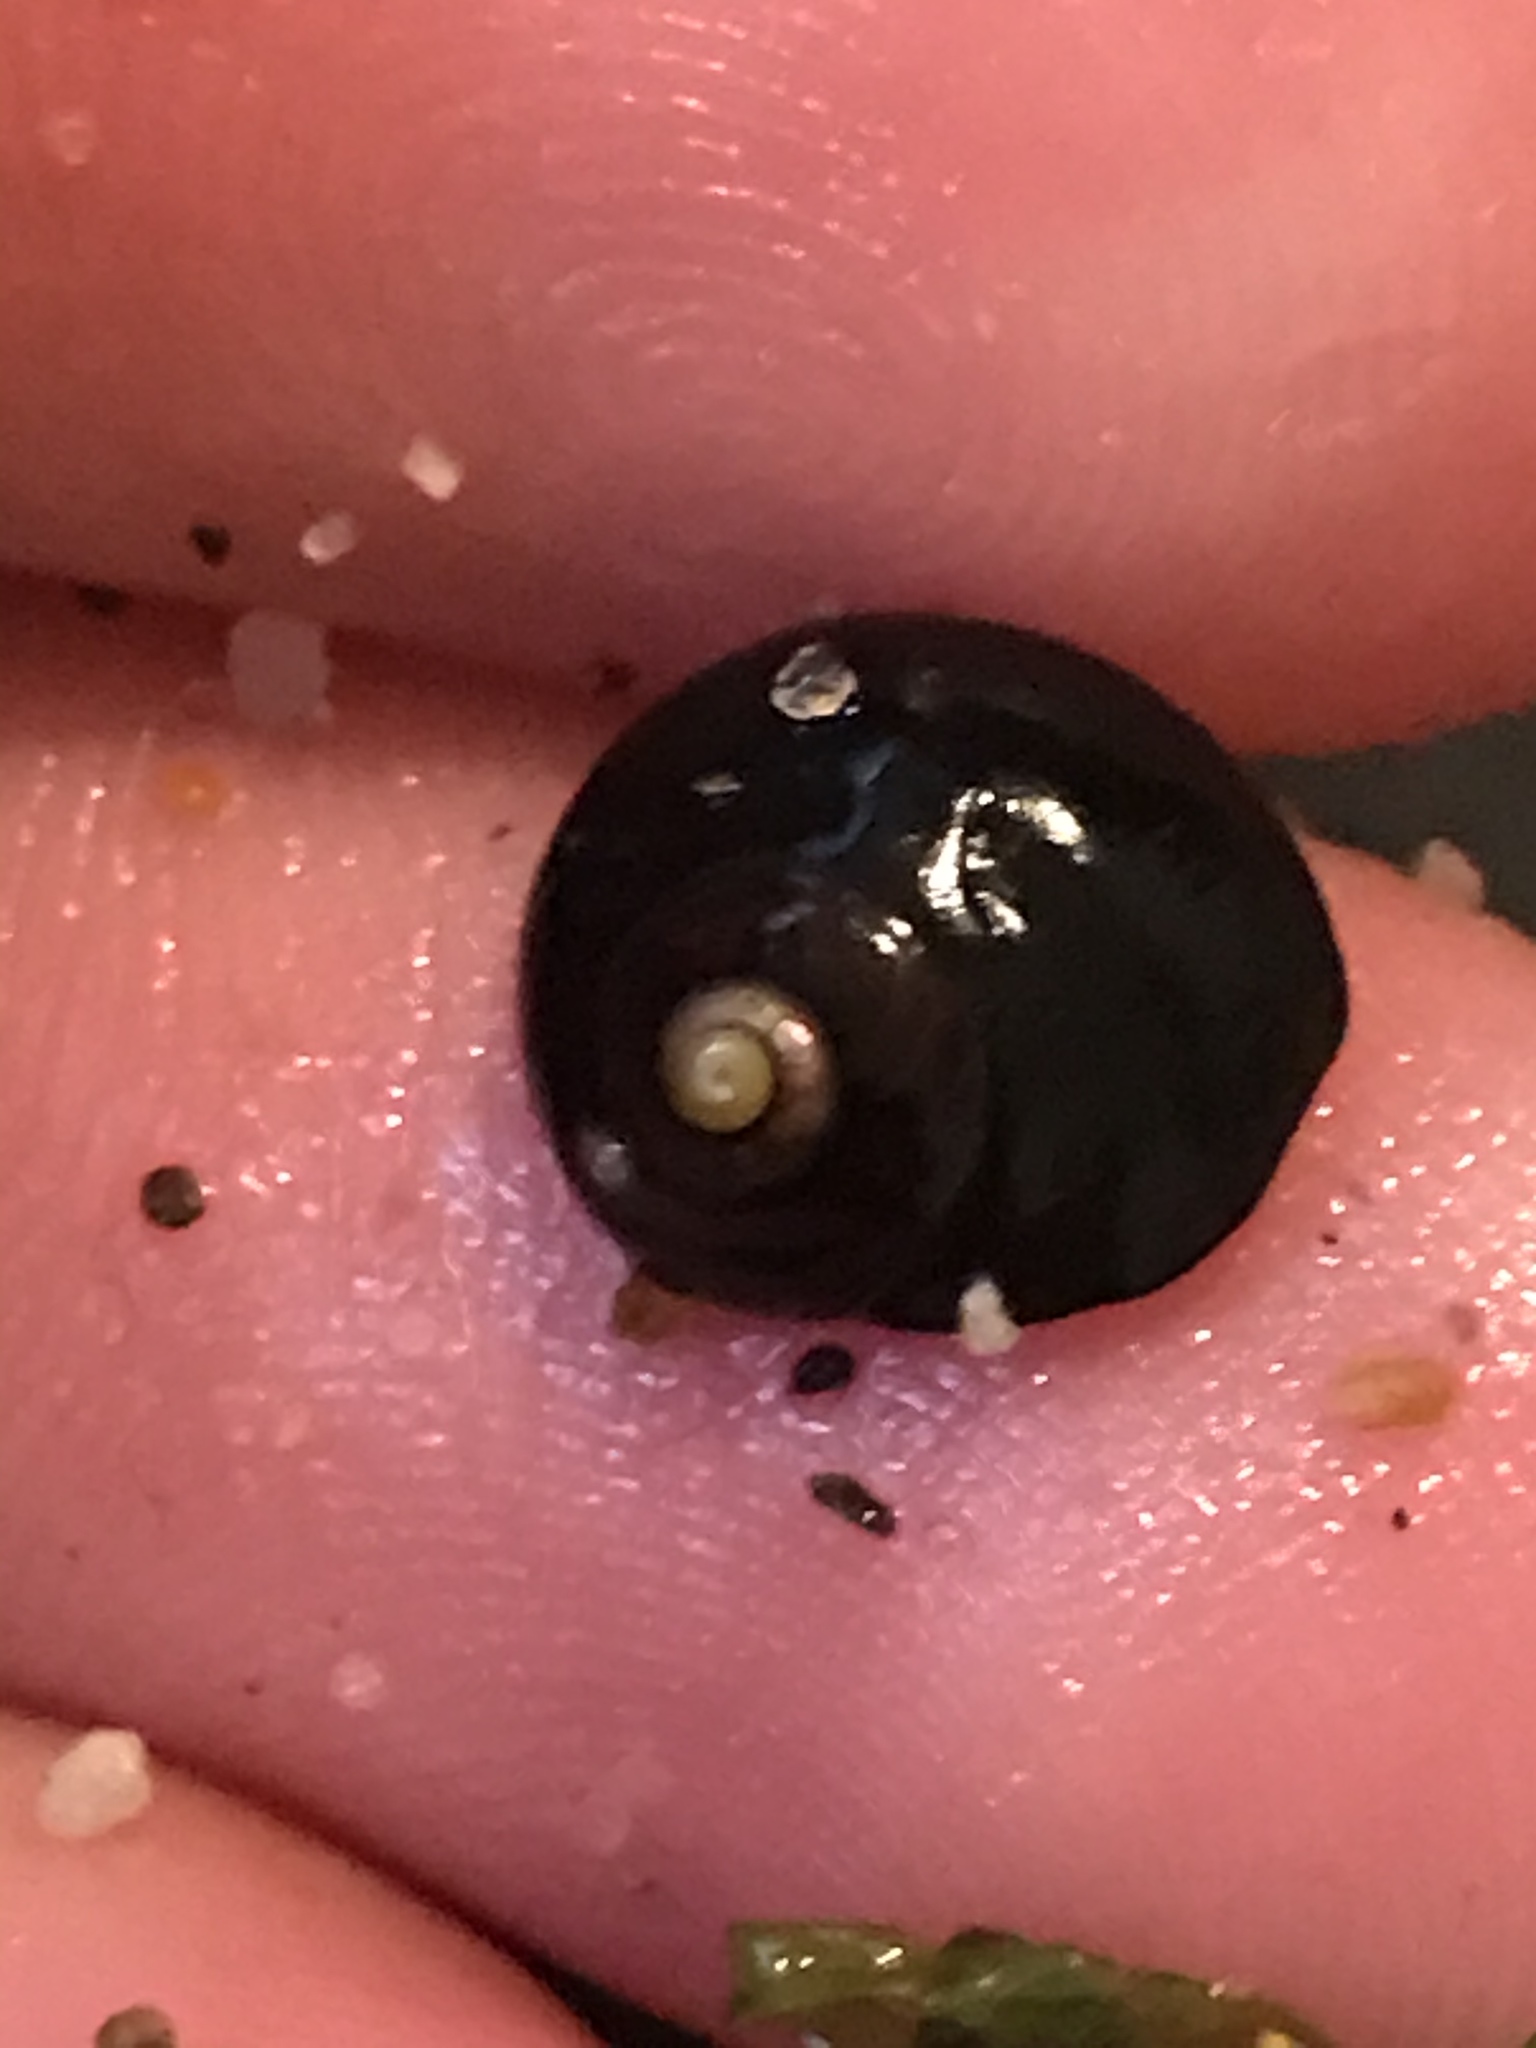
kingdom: Animalia
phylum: Mollusca
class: Gastropoda
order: Trochida
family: Tegulidae
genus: Tegula
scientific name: Tegula funebralis
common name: Black tegula
